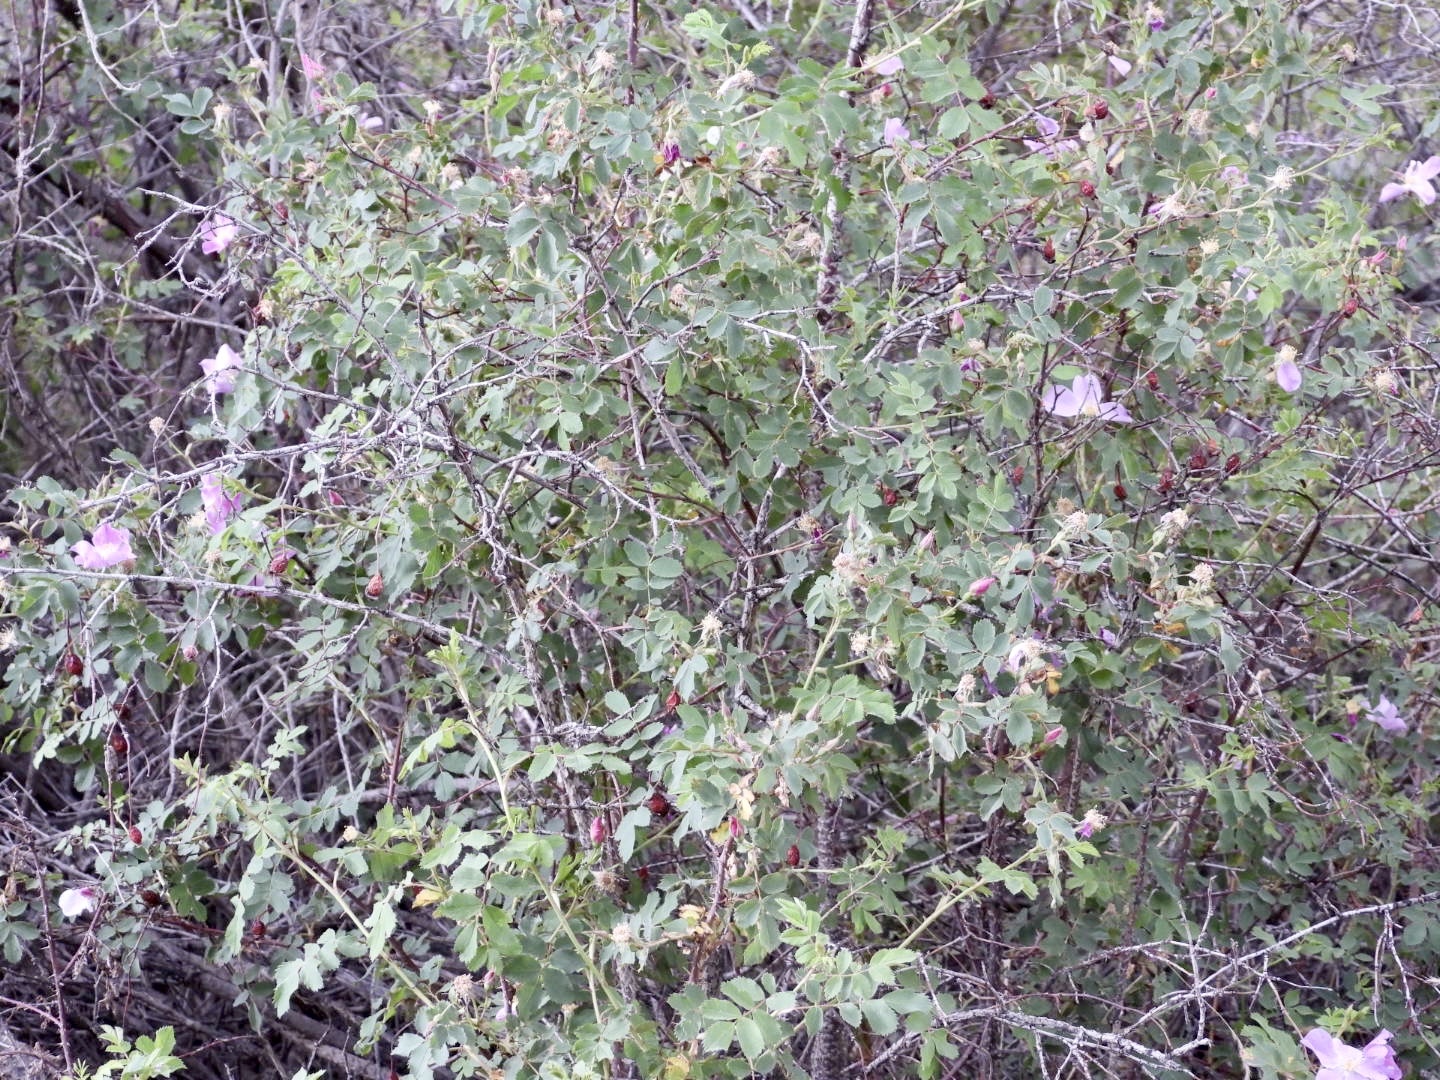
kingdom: Plantae
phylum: Tracheophyta
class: Magnoliopsida
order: Rosales
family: Rosaceae
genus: Rosa
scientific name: Rosa woodsii
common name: Woods's rose
